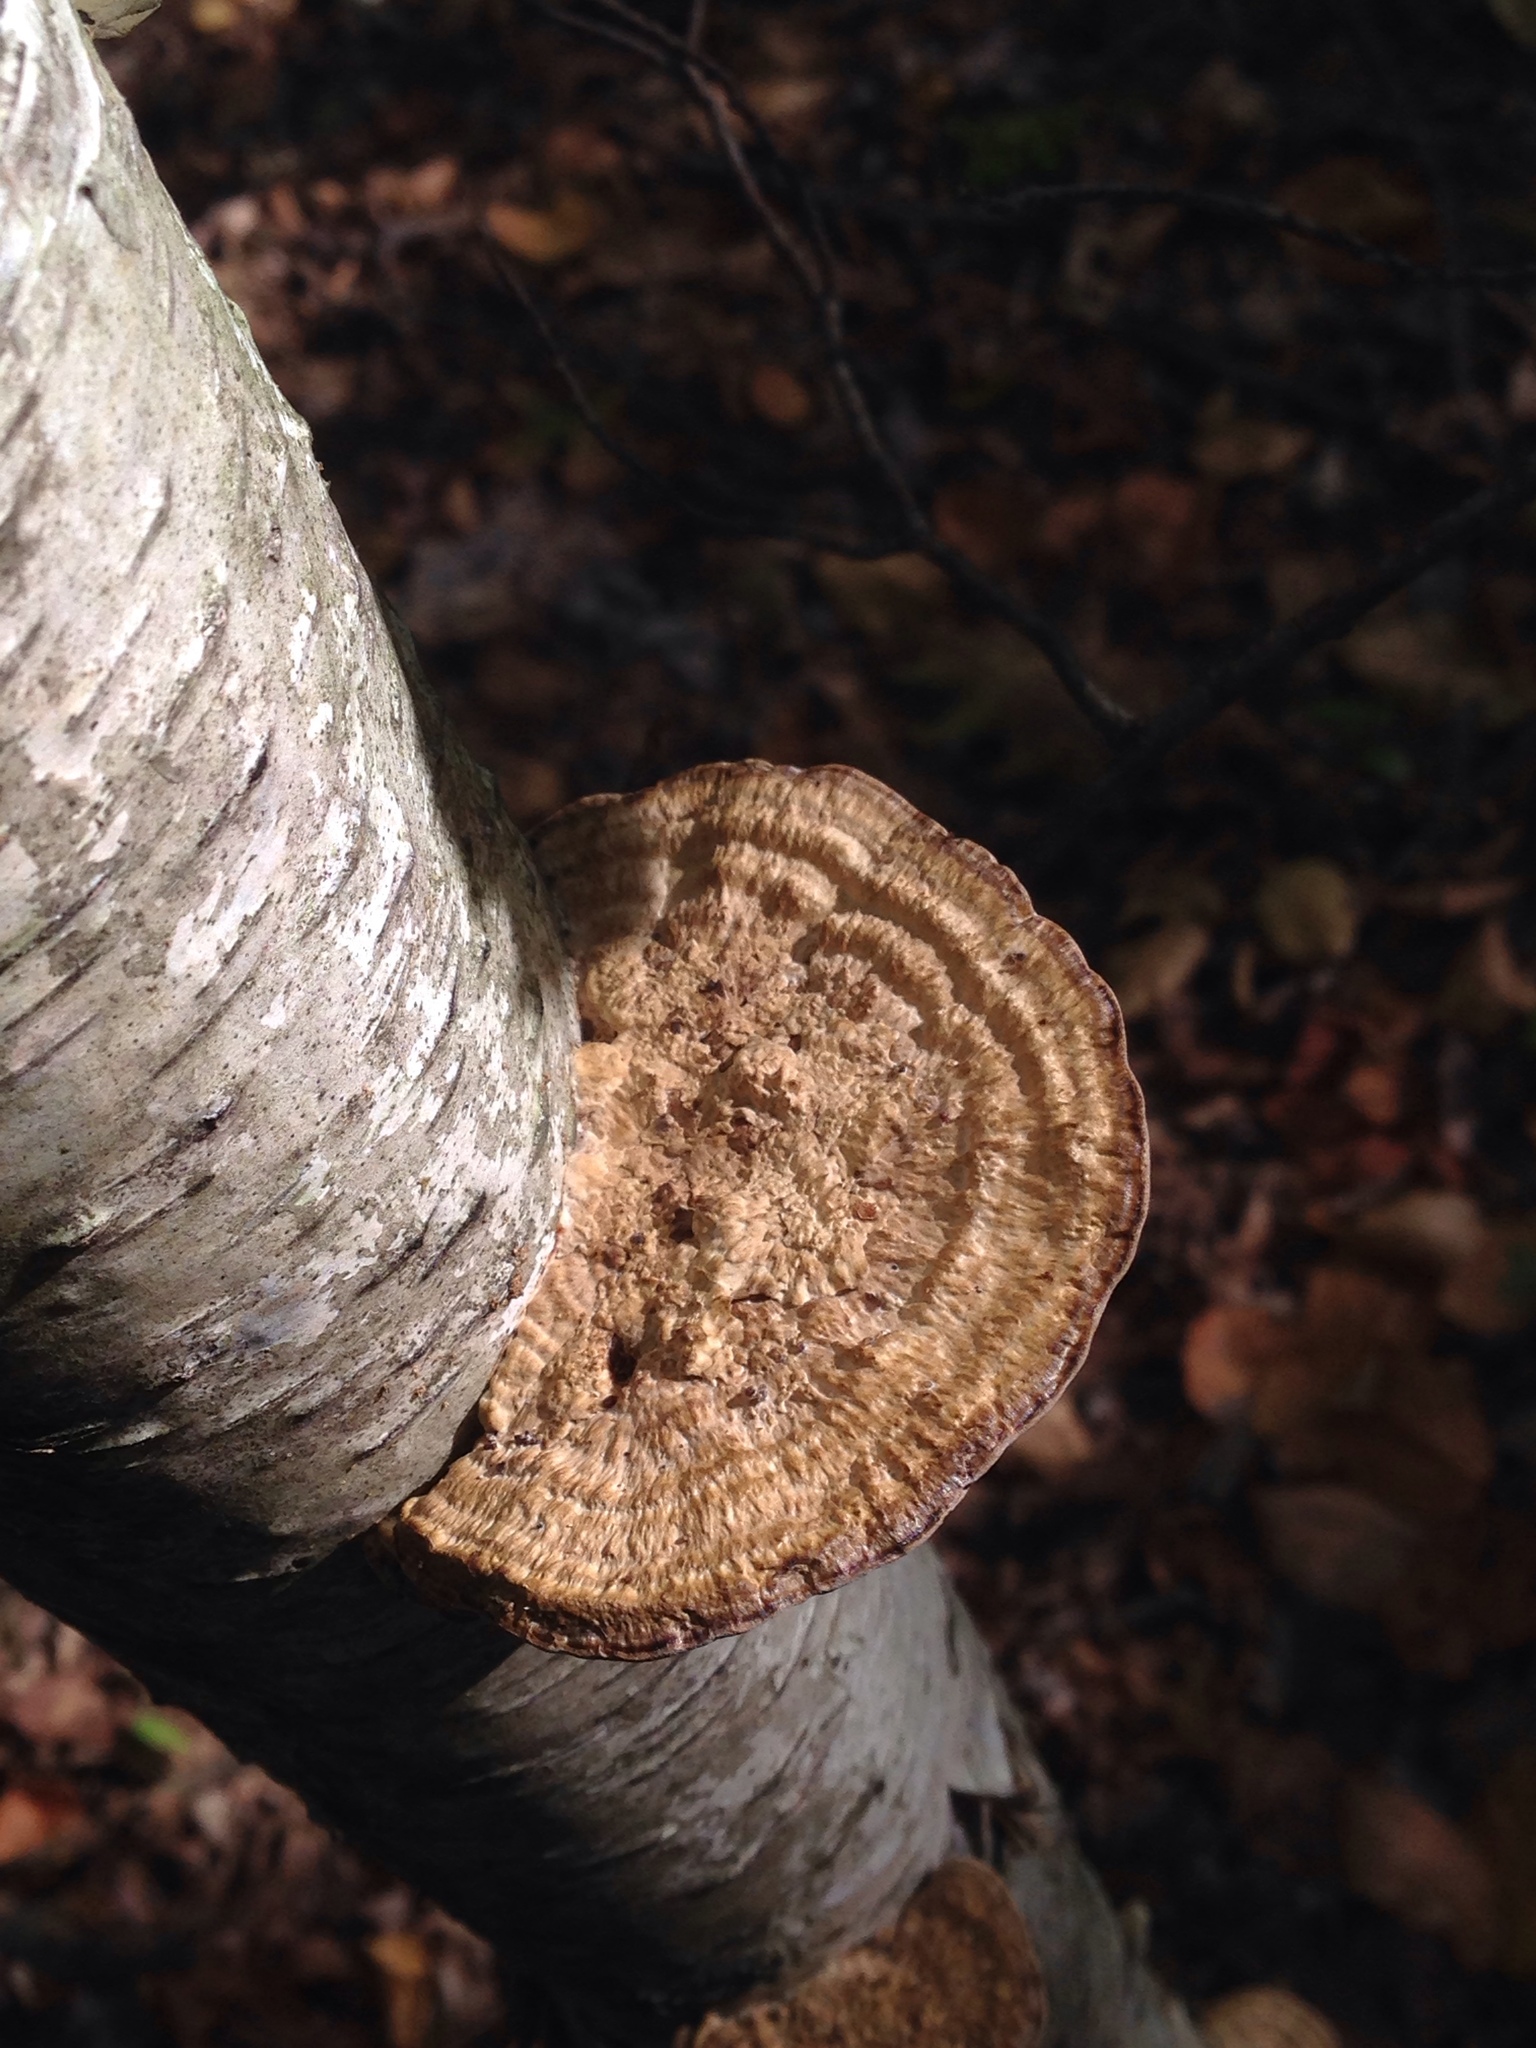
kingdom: Fungi
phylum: Basidiomycota
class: Agaricomycetes
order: Polyporales
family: Polyporaceae
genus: Daedaleopsis
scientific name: Daedaleopsis confragosa
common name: Blushing bracket
